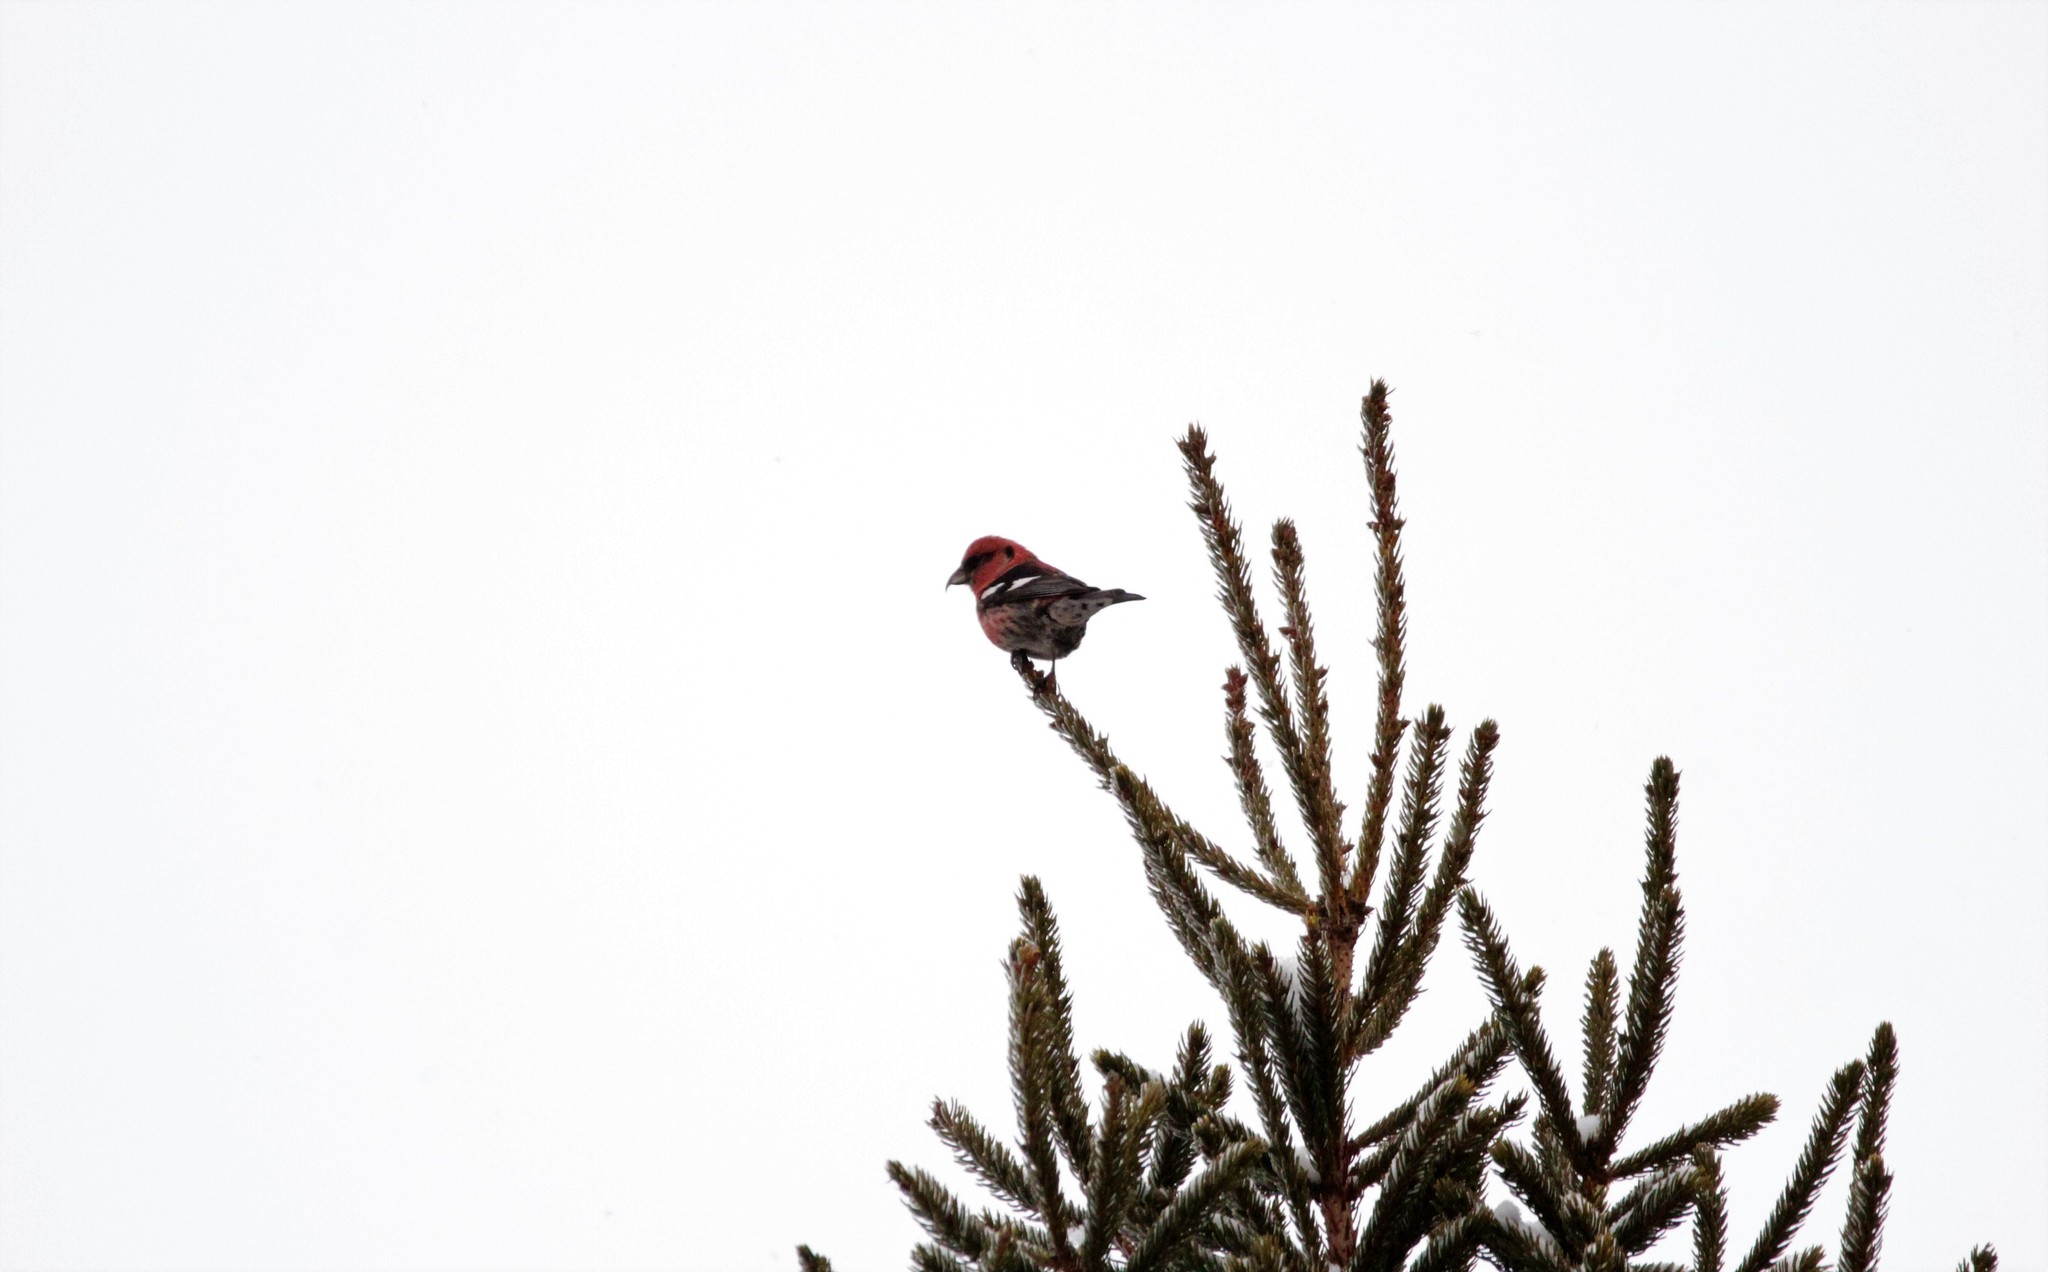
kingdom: Animalia
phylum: Chordata
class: Aves
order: Passeriformes
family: Fringillidae
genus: Loxia
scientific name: Loxia leucoptera
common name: Two-barred crossbill
